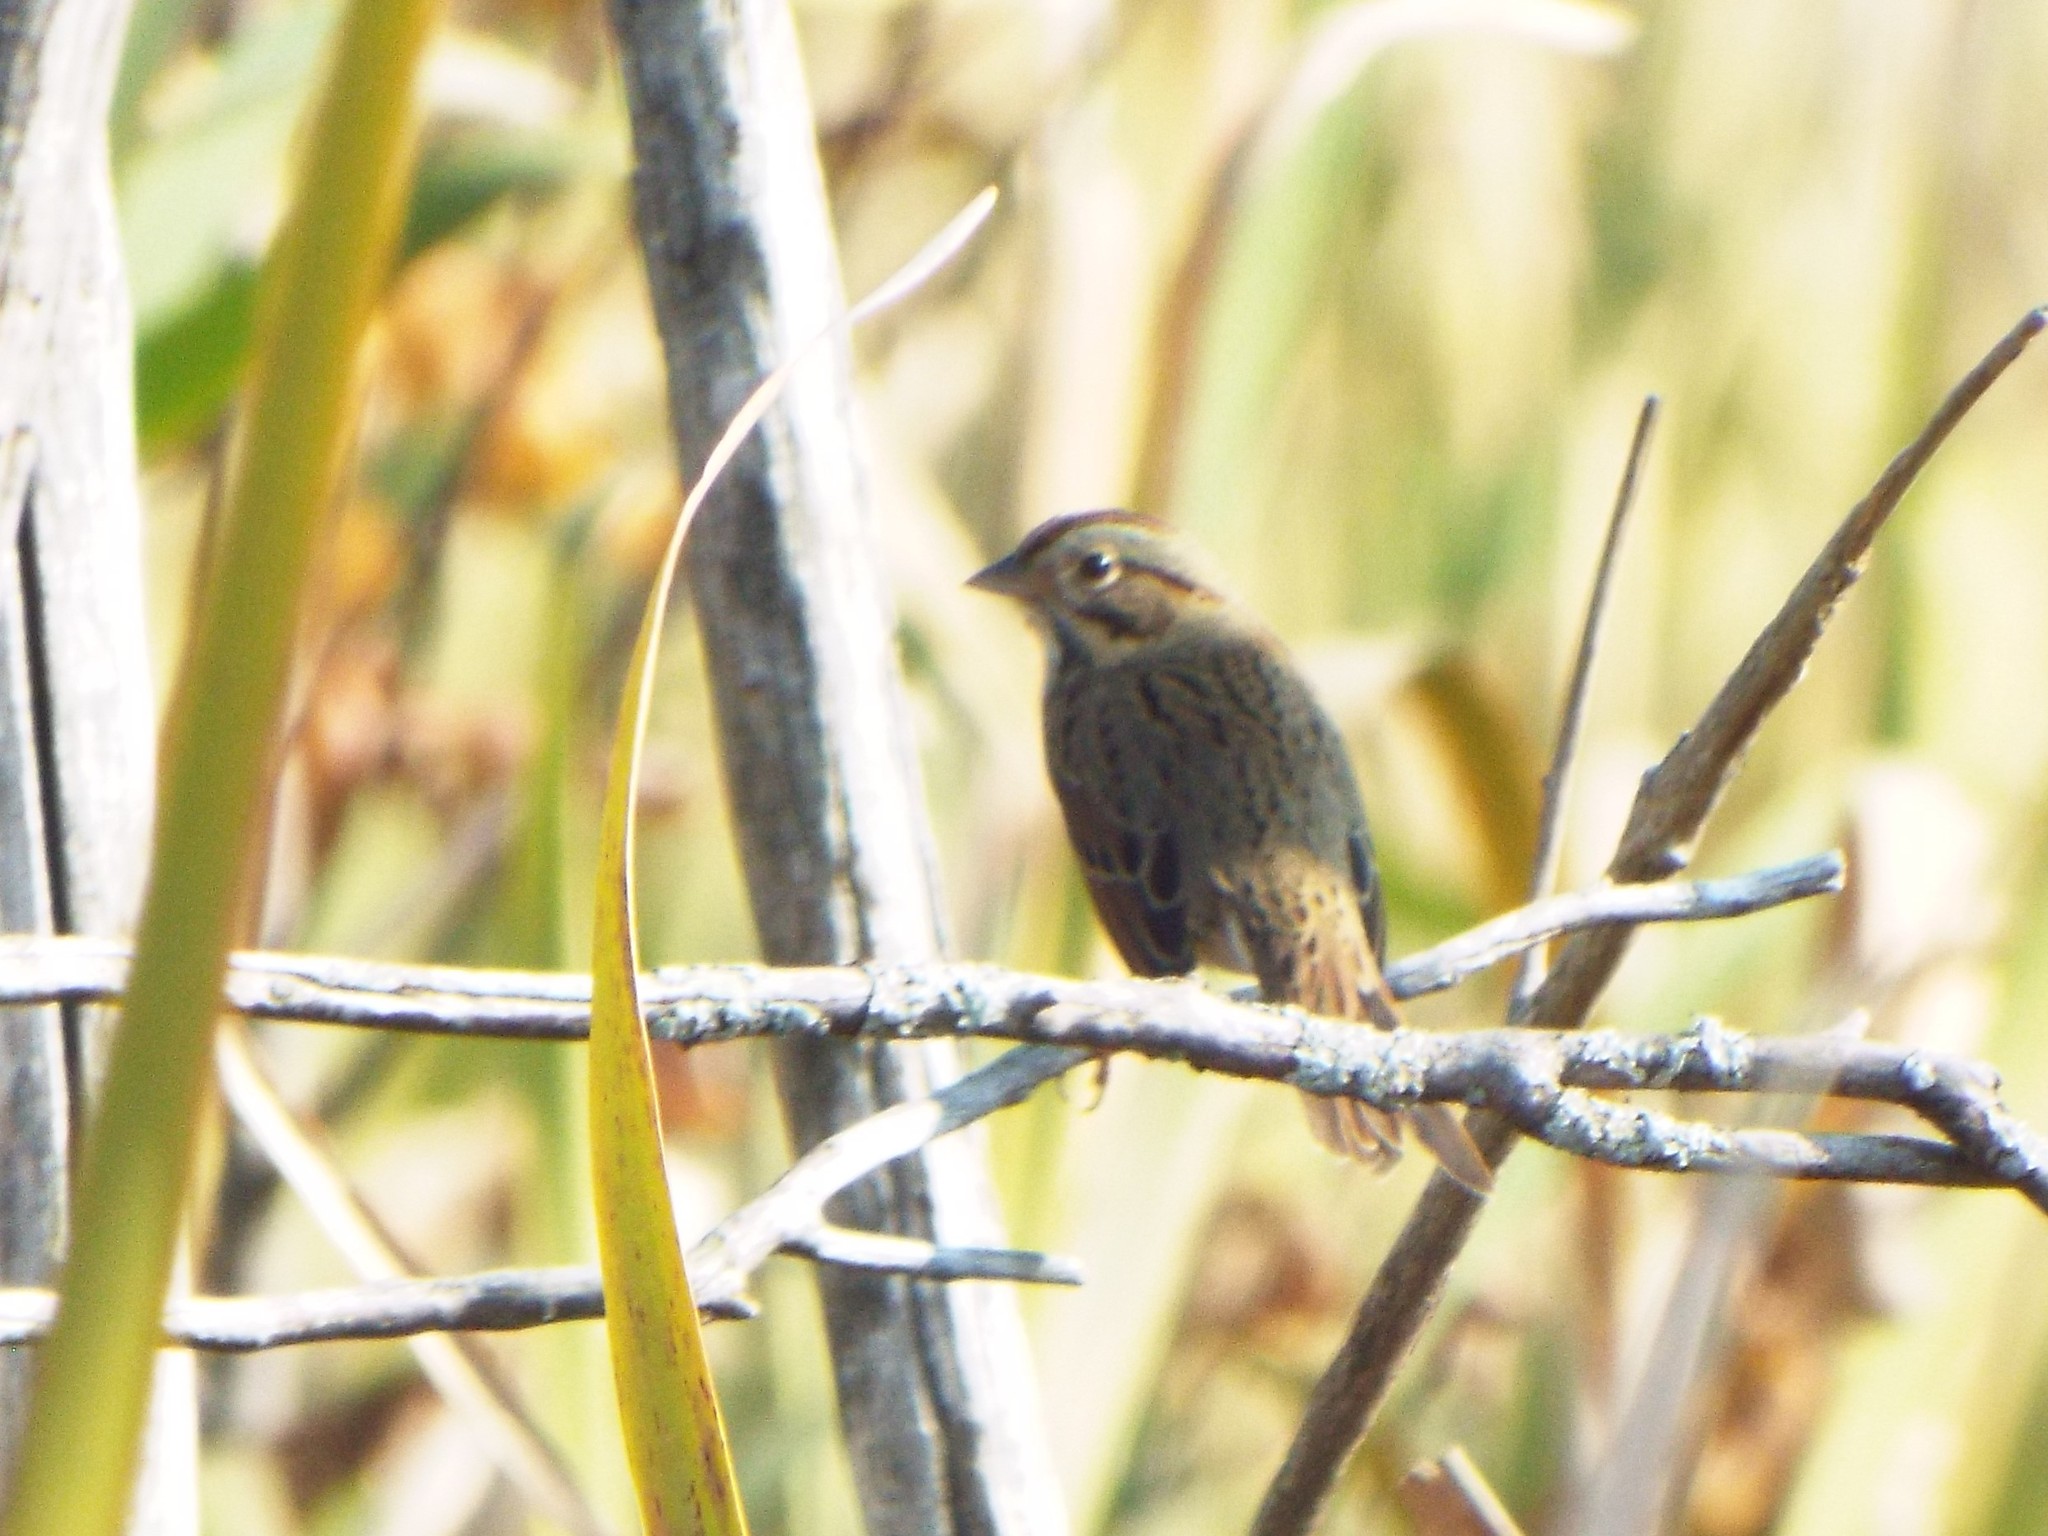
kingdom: Animalia
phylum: Chordata
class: Aves
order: Passeriformes
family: Passerellidae
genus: Melospiza
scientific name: Melospiza lincolnii
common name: Lincoln's sparrow
